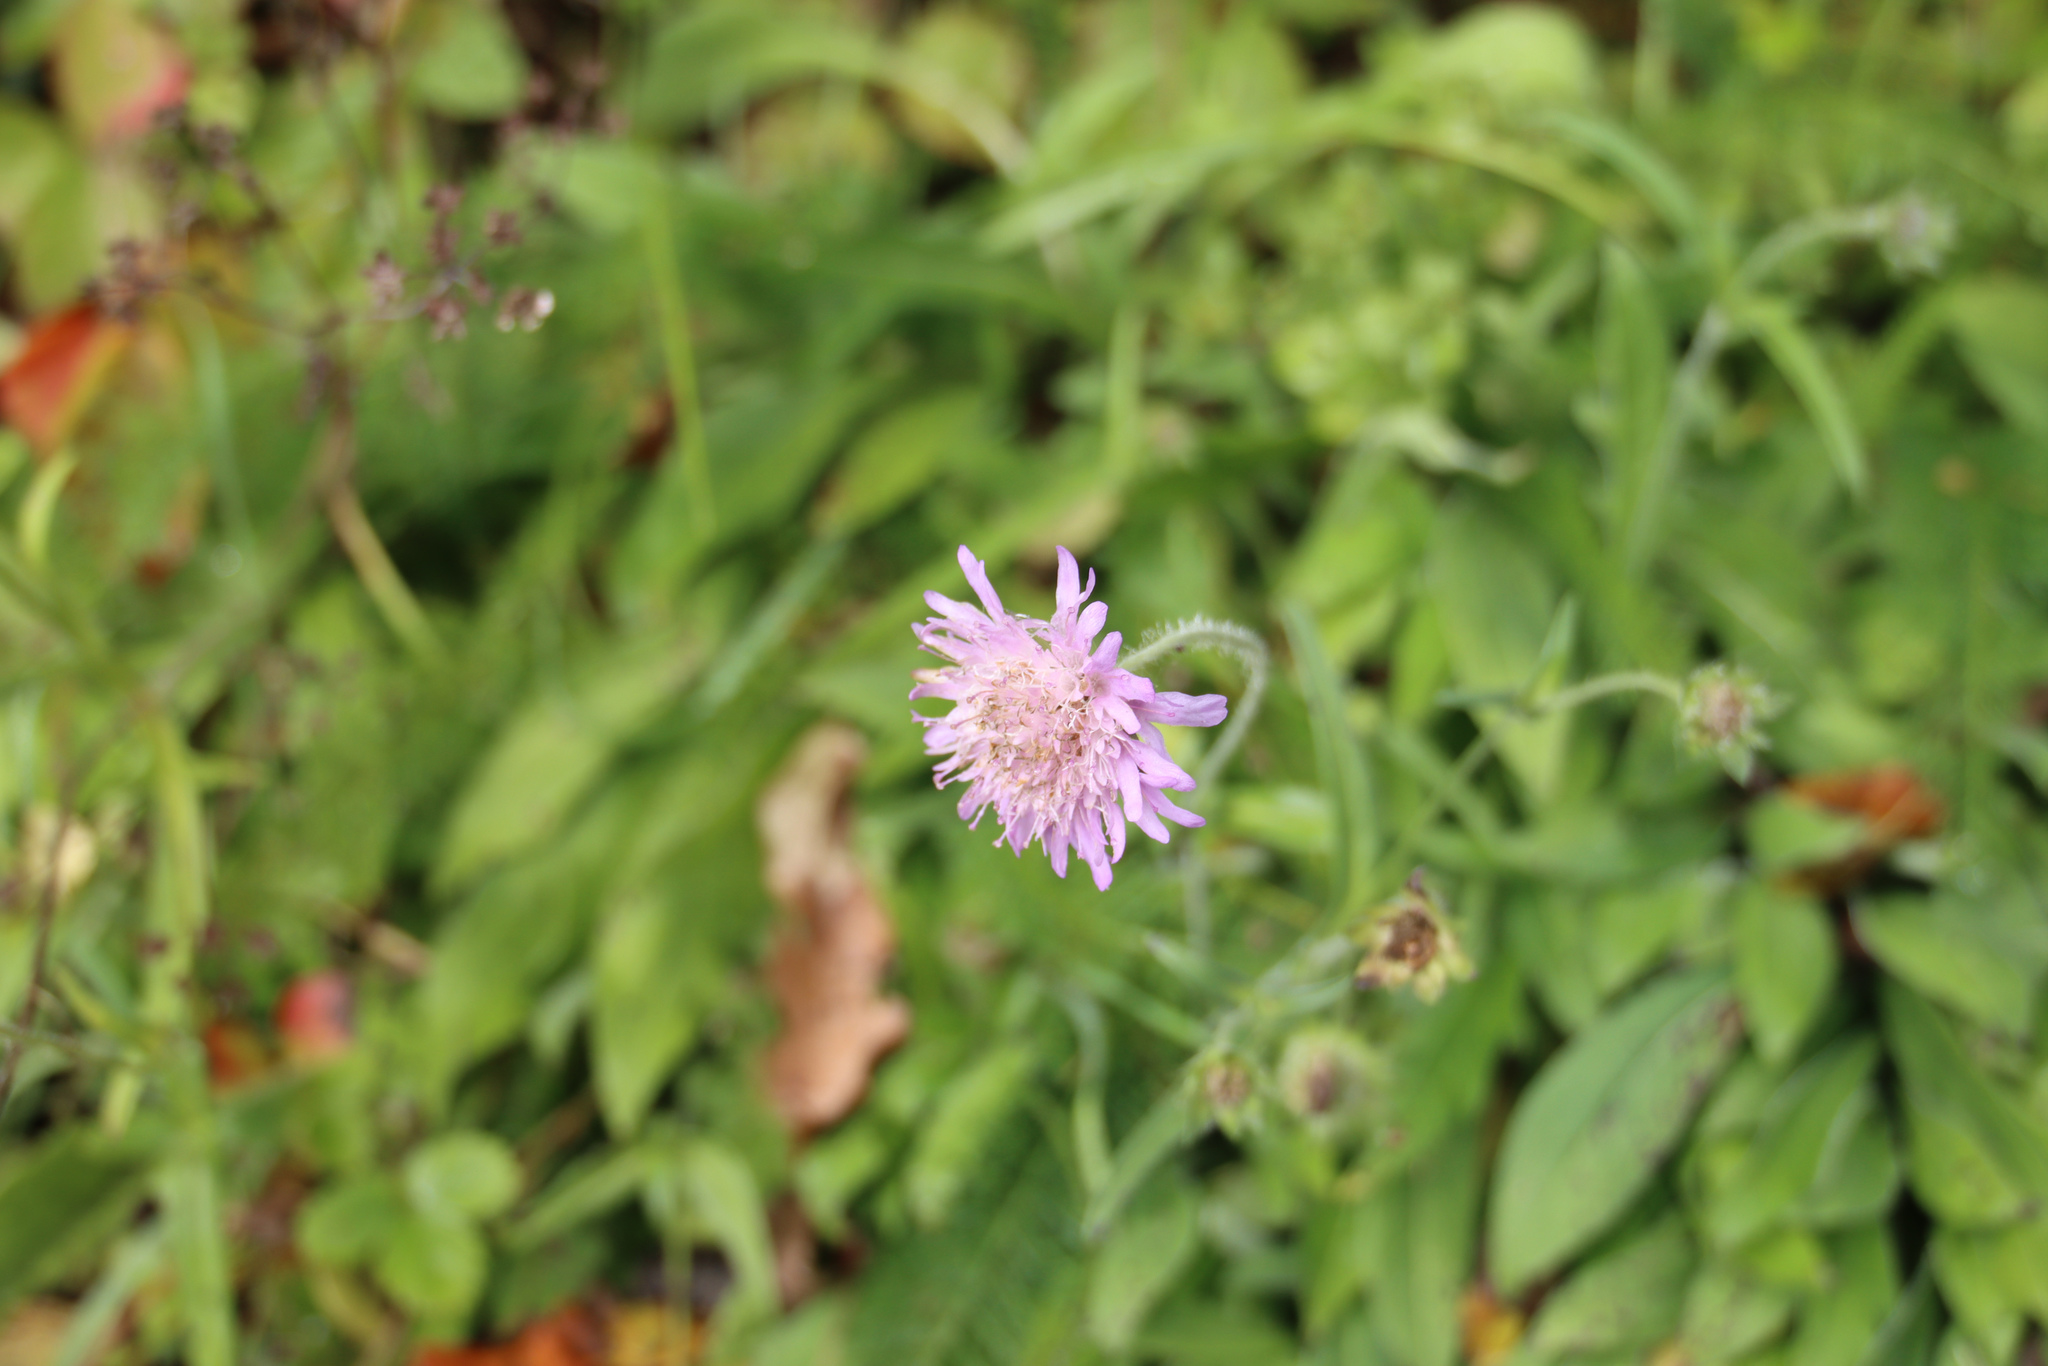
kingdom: Plantae
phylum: Tracheophyta
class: Magnoliopsida
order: Dipsacales
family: Caprifoliaceae
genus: Knautia
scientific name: Knautia arvensis
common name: Field scabiosa
